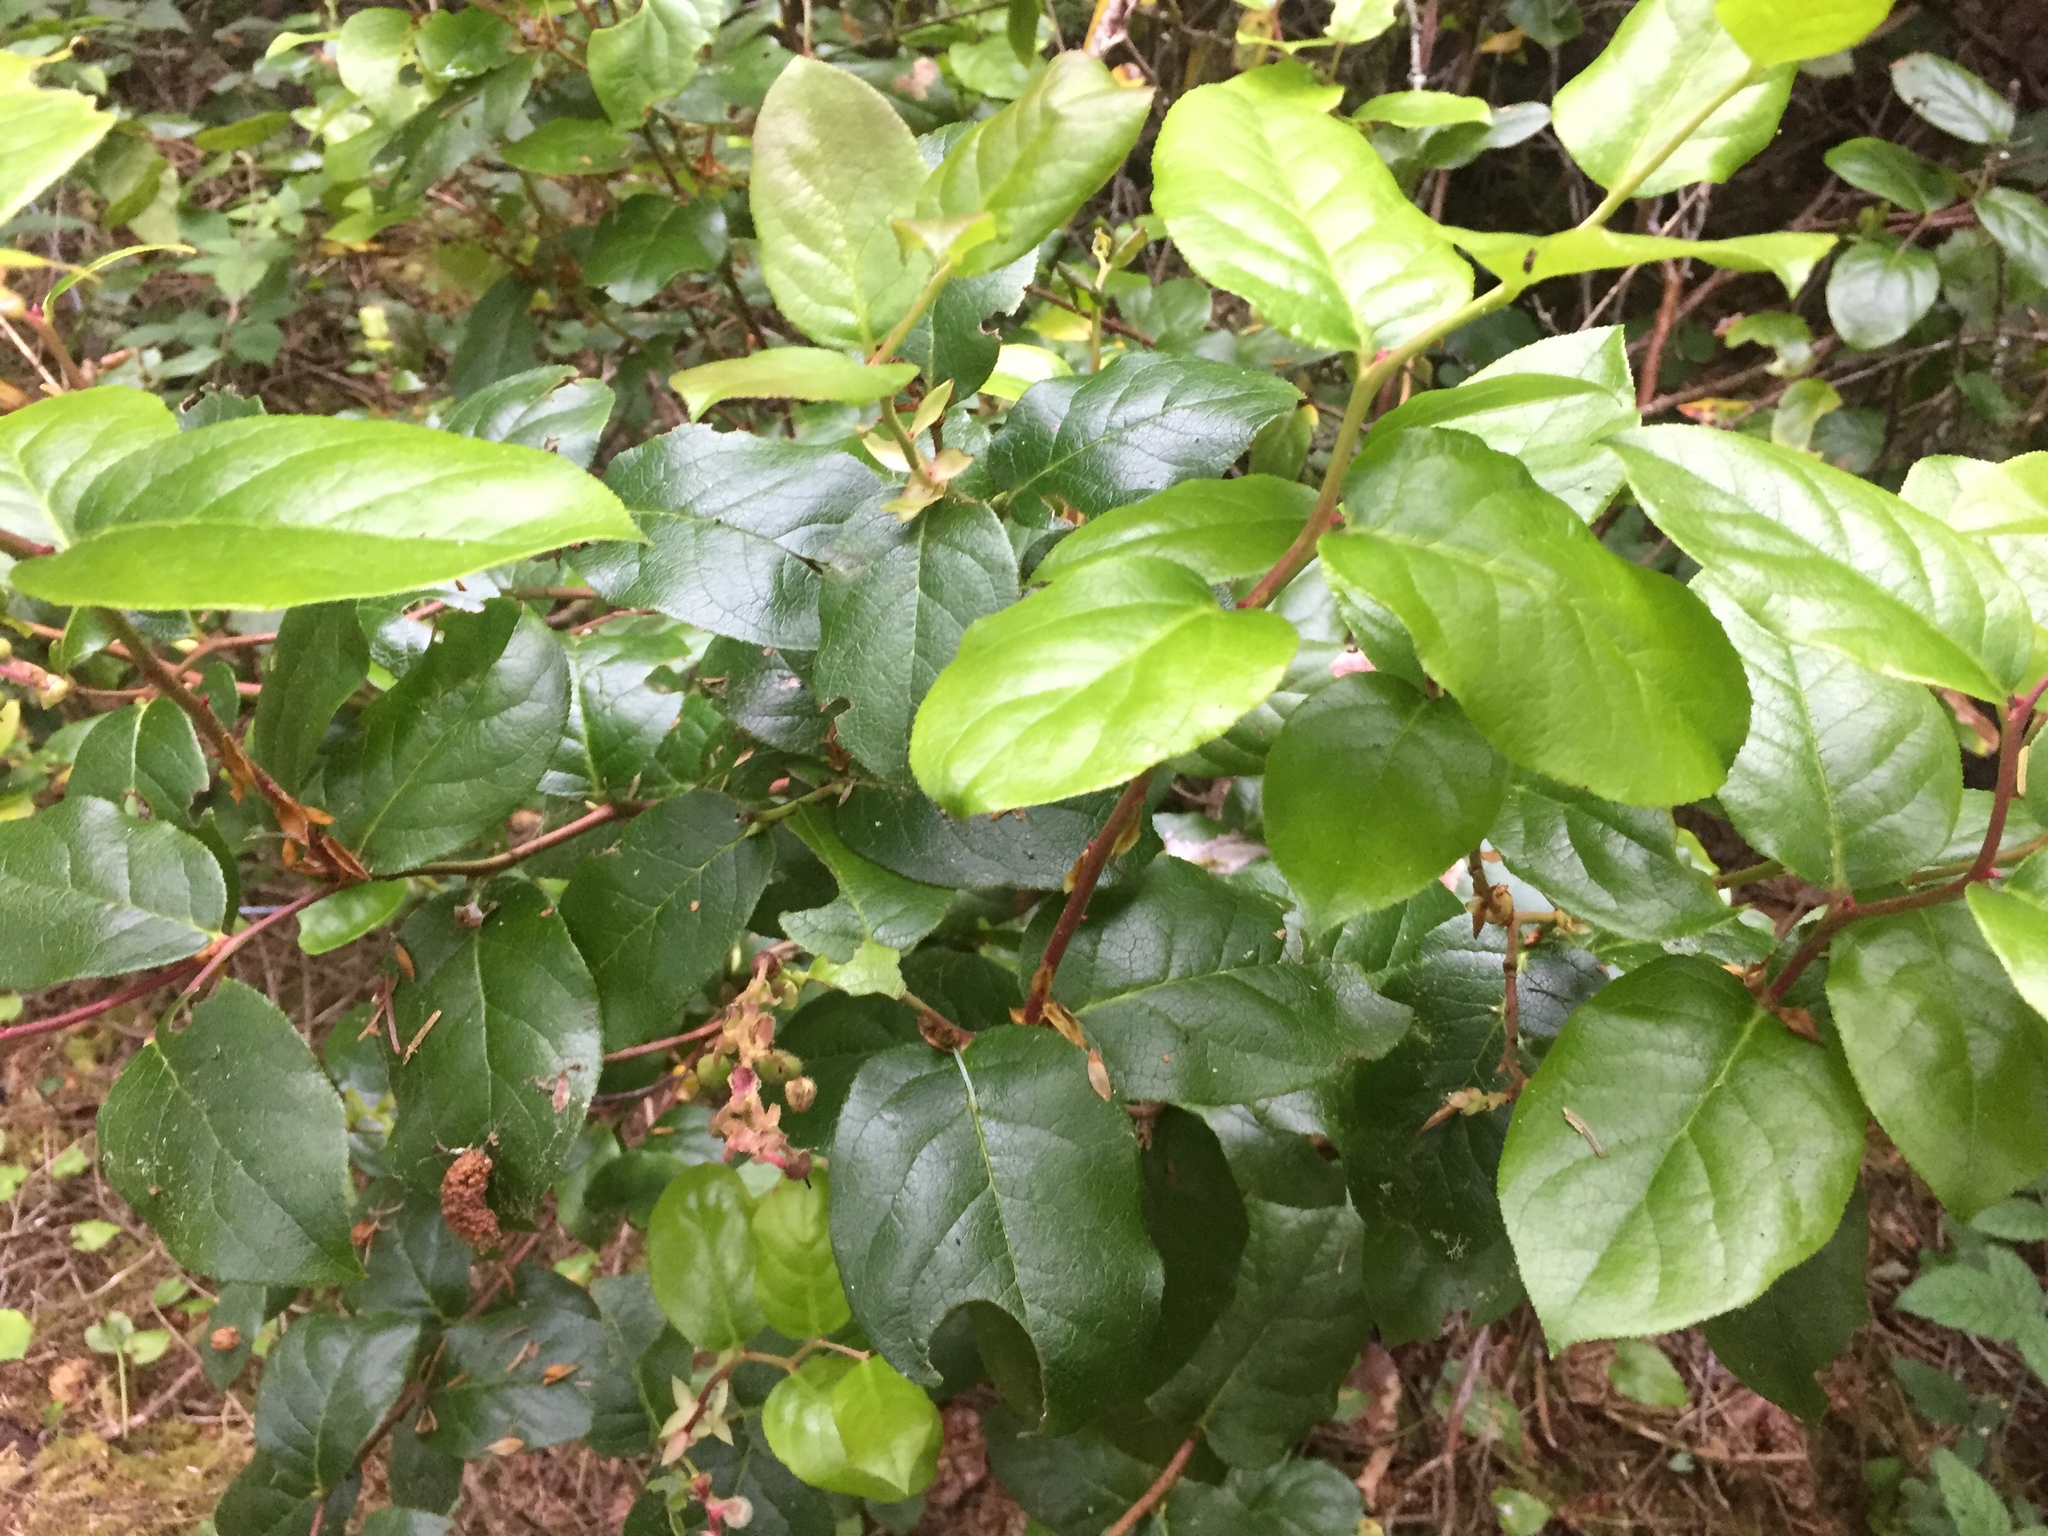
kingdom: Plantae
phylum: Tracheophyta
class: Magnoliopsida
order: Ericales
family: Ericaceae
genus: Gaultheria
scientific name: Gaultheria shallon
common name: Shallon
